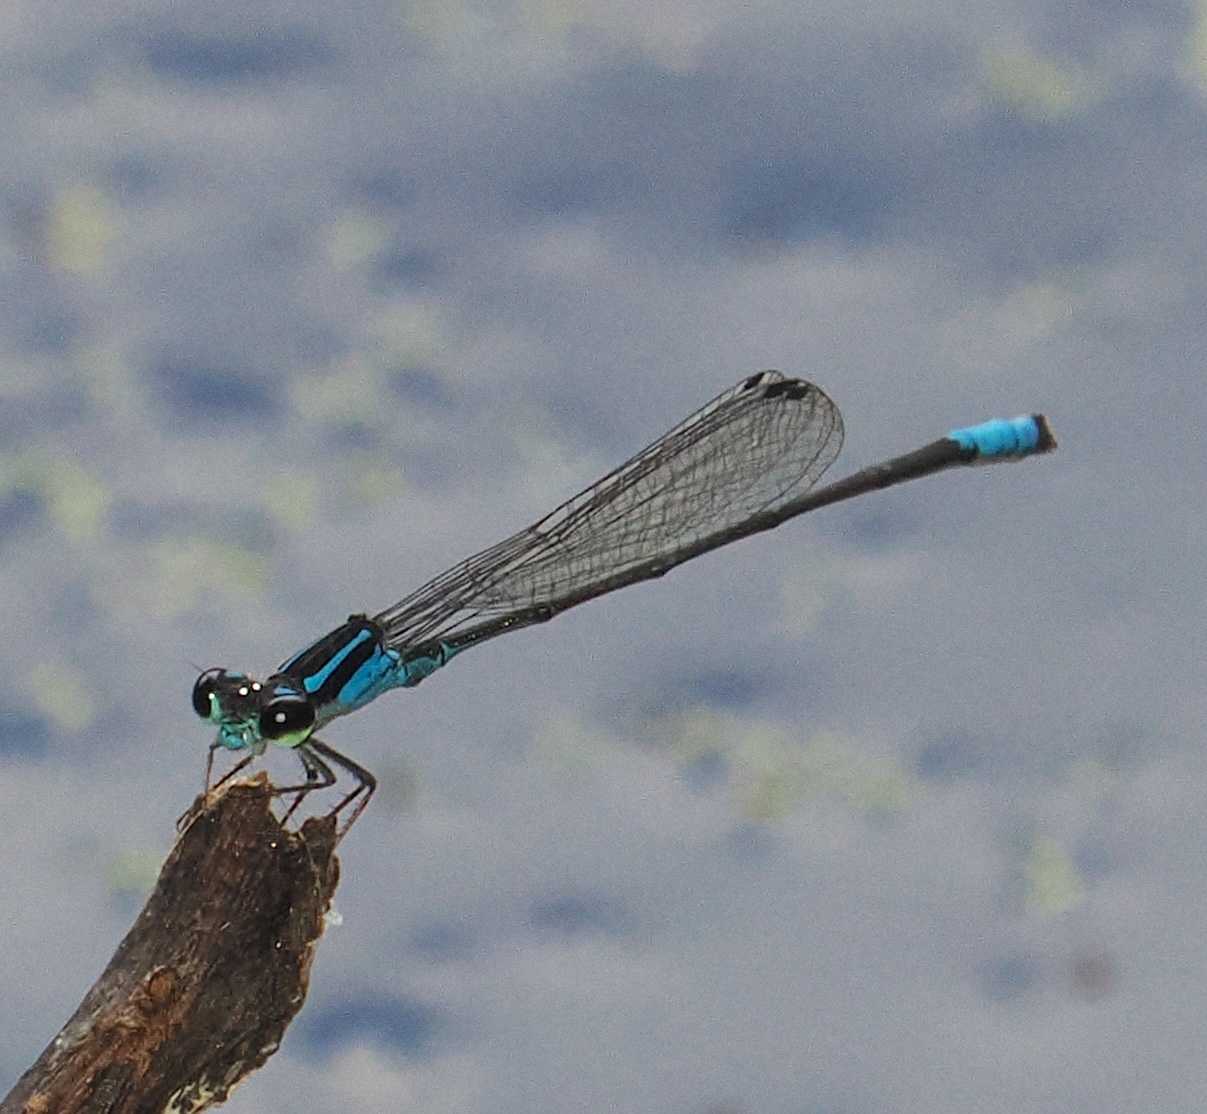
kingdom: Animalia
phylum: Arthropoda
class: Insecta
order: Odonata
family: Coenagrionidae
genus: Acanthagrion
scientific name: Acanthagrion gracile
